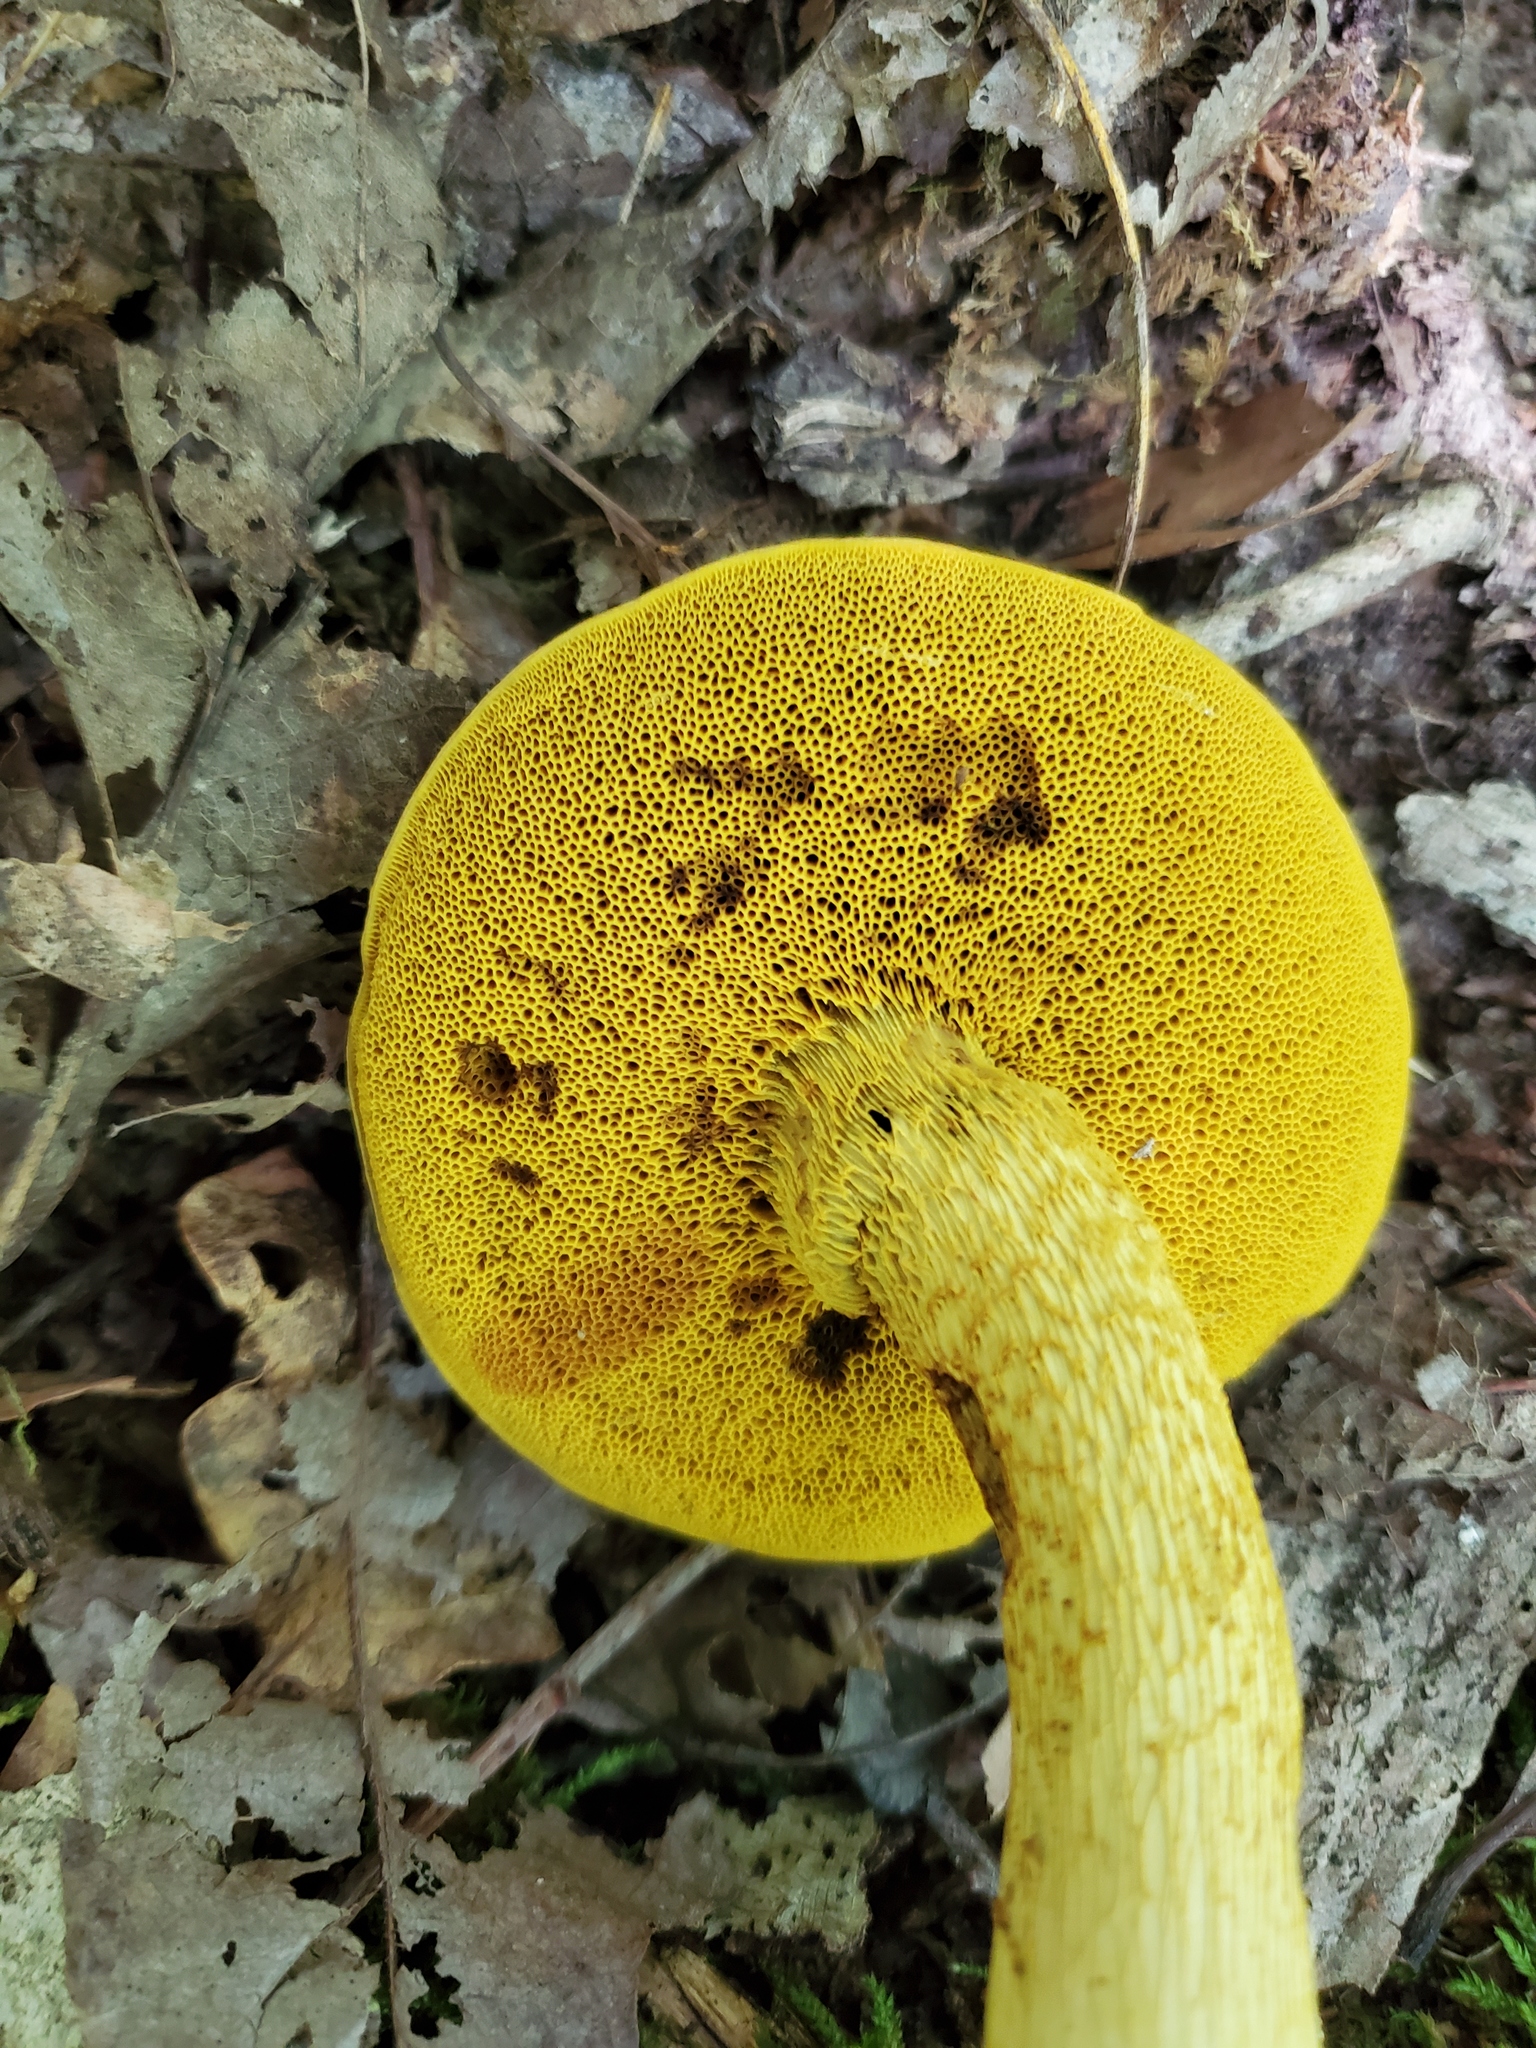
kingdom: Fungi
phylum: Basidiomycota
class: Agaricomycetes
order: Boletales
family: Boletaceae
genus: Retiboletus
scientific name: Retiboletus ornatipes
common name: Ornate-stalked bolete
